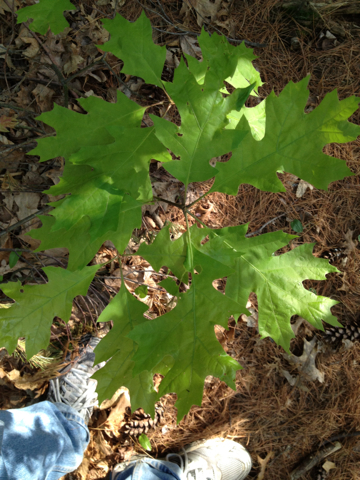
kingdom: Plantae
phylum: Tracheophyta
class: Magnoliopsida
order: Fagales
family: Fagaceae
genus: Quercus
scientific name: Quercus rubra
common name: Red oak
